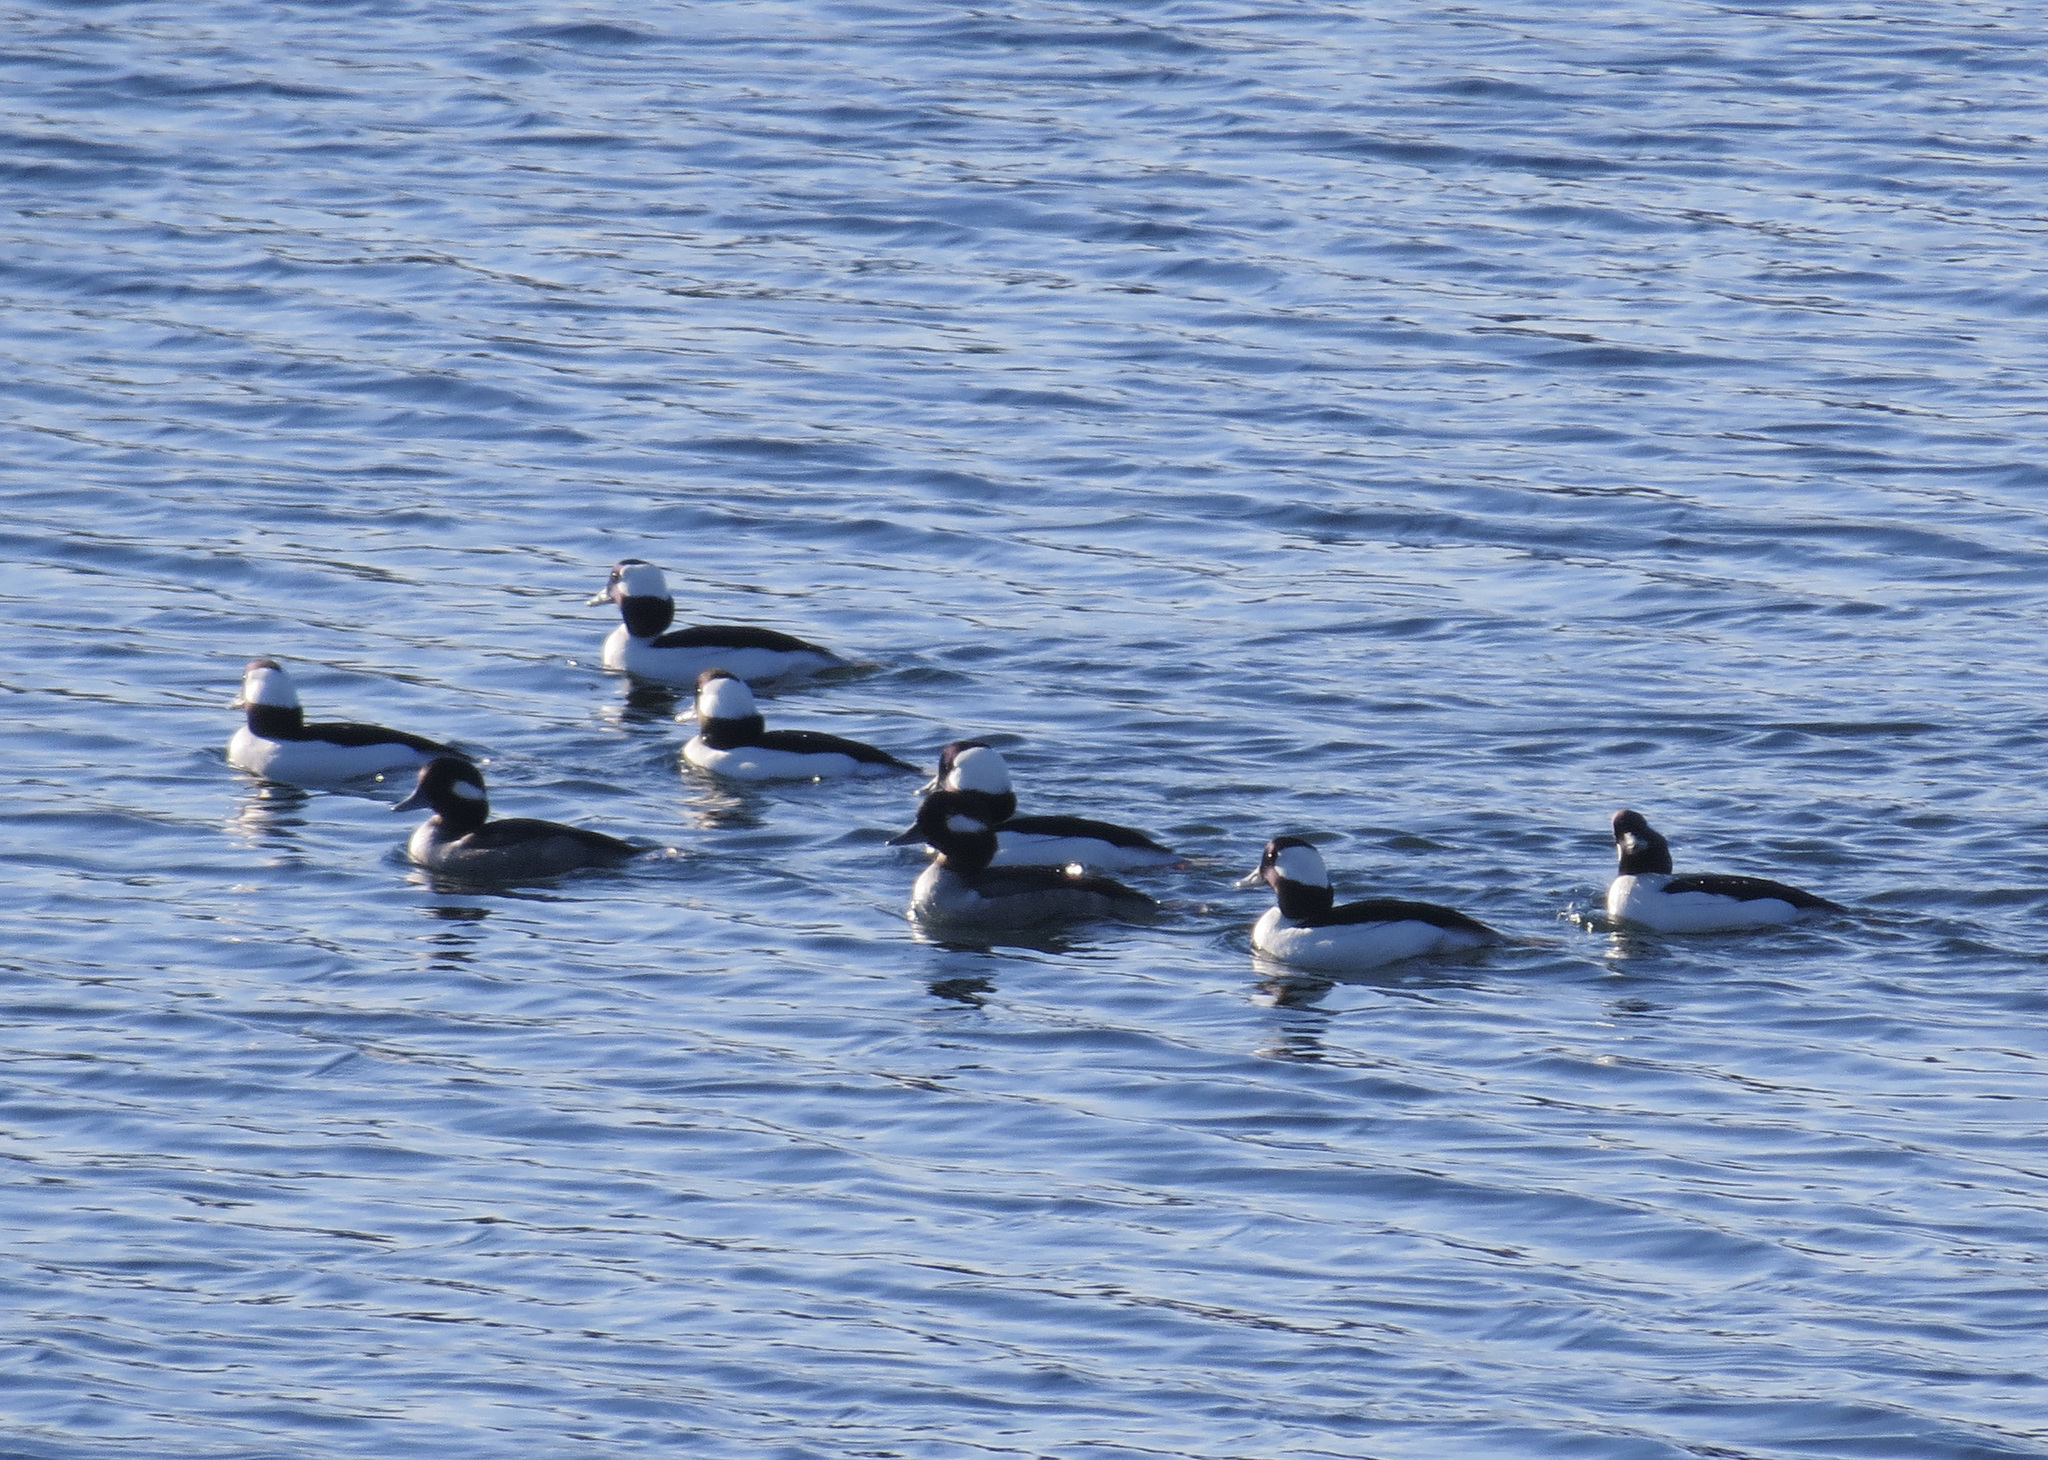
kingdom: Animalia
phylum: Chordata
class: Aves
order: Anseriformes
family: Anatidae
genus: Bucephala
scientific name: Bucephala albeola
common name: Bufflehead
